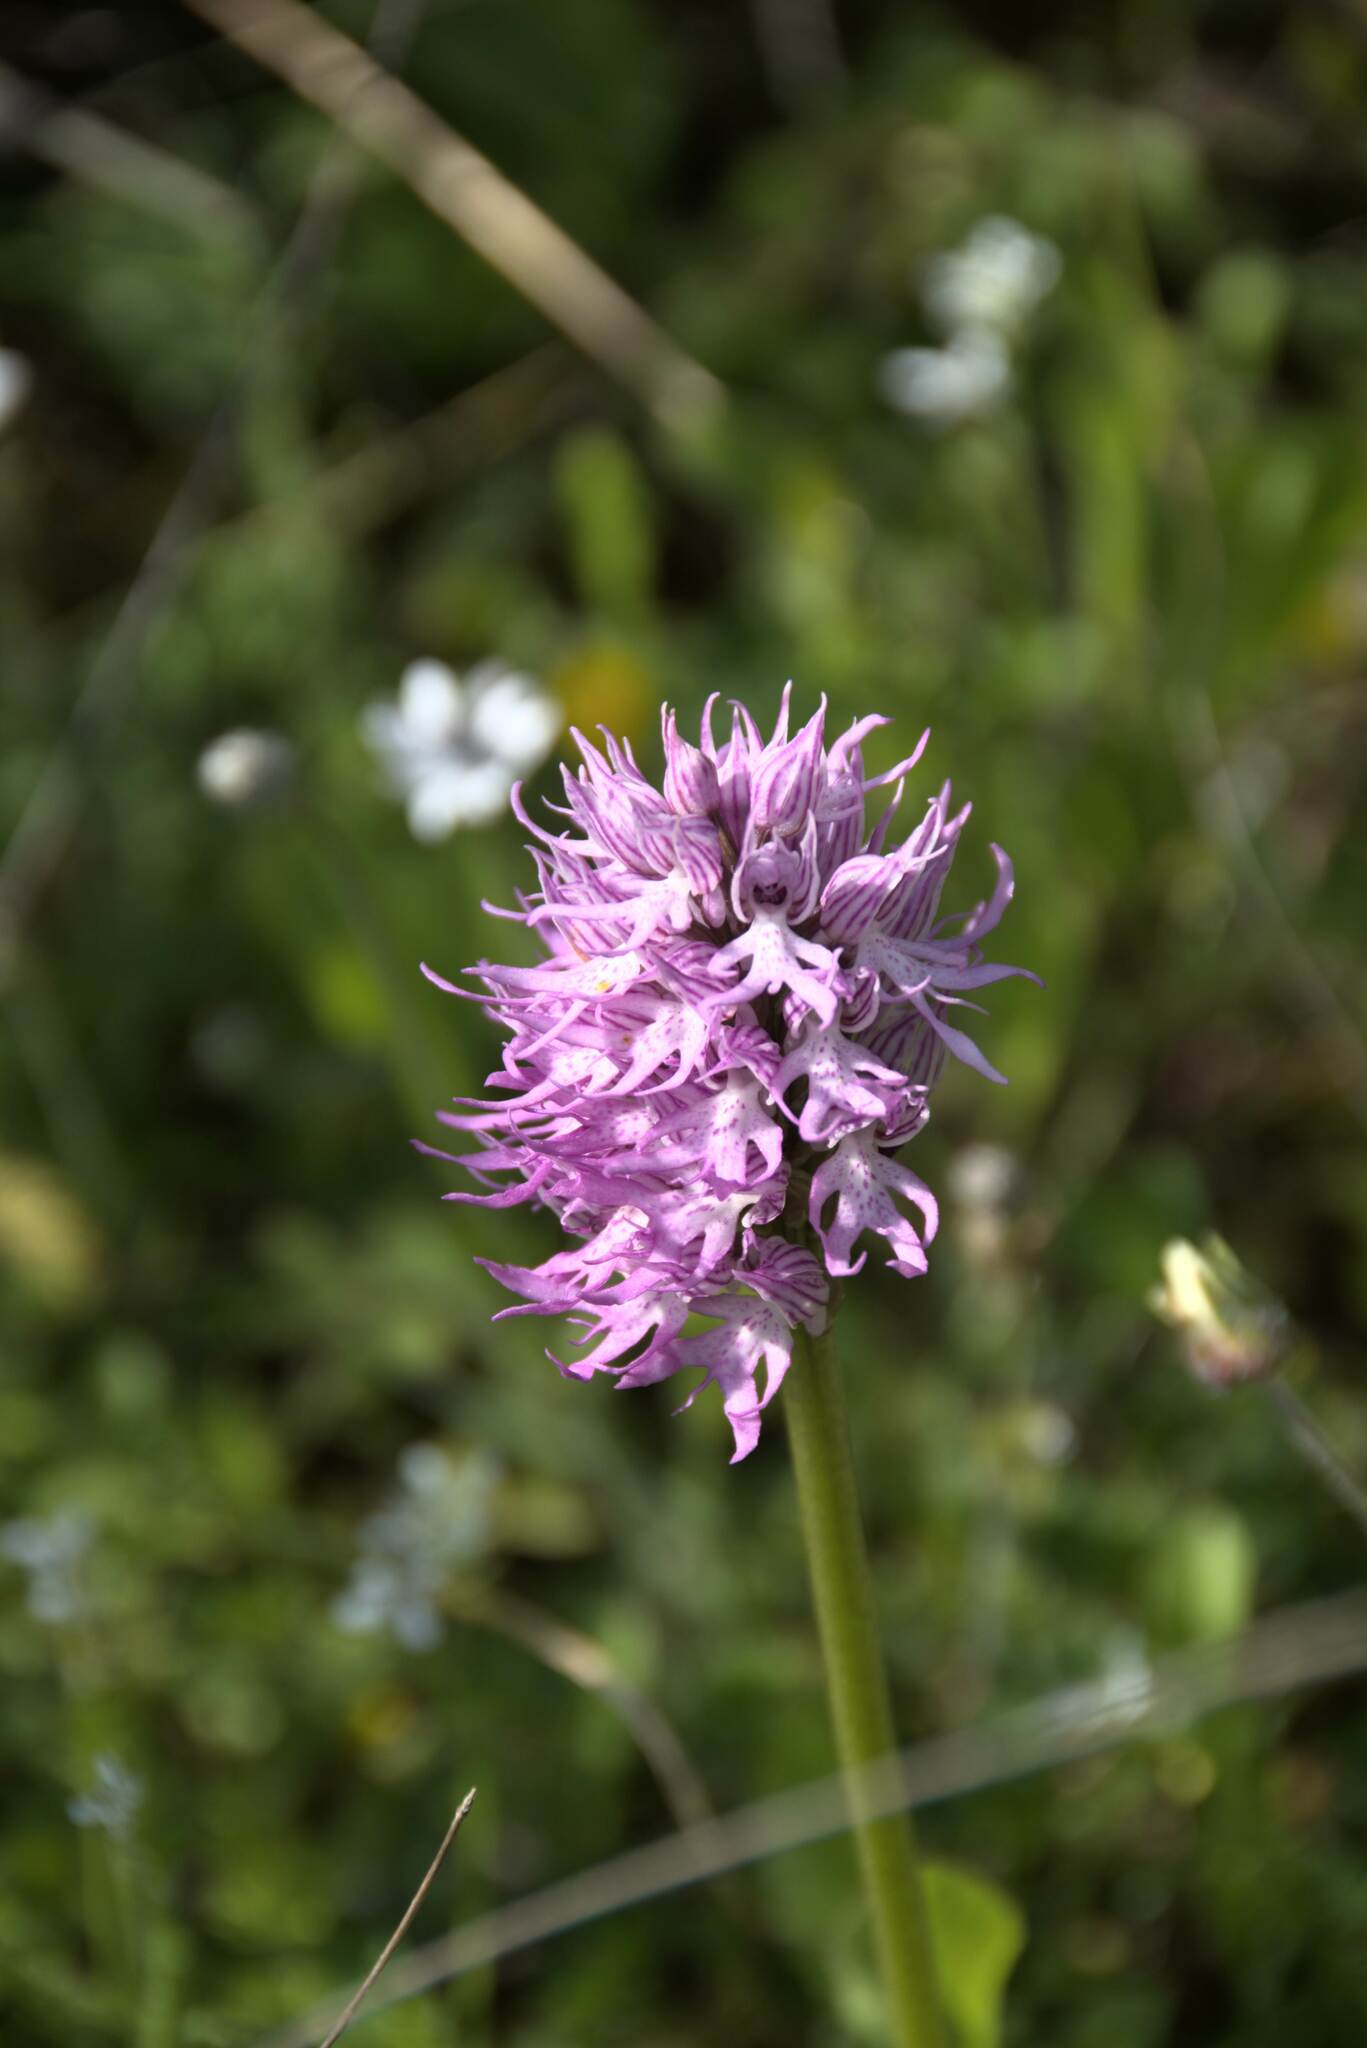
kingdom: Plantae
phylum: Tracheophyta
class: Liliopsida
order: Asparagales
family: Orchidaceae
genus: Orchis
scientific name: Orchis italica
